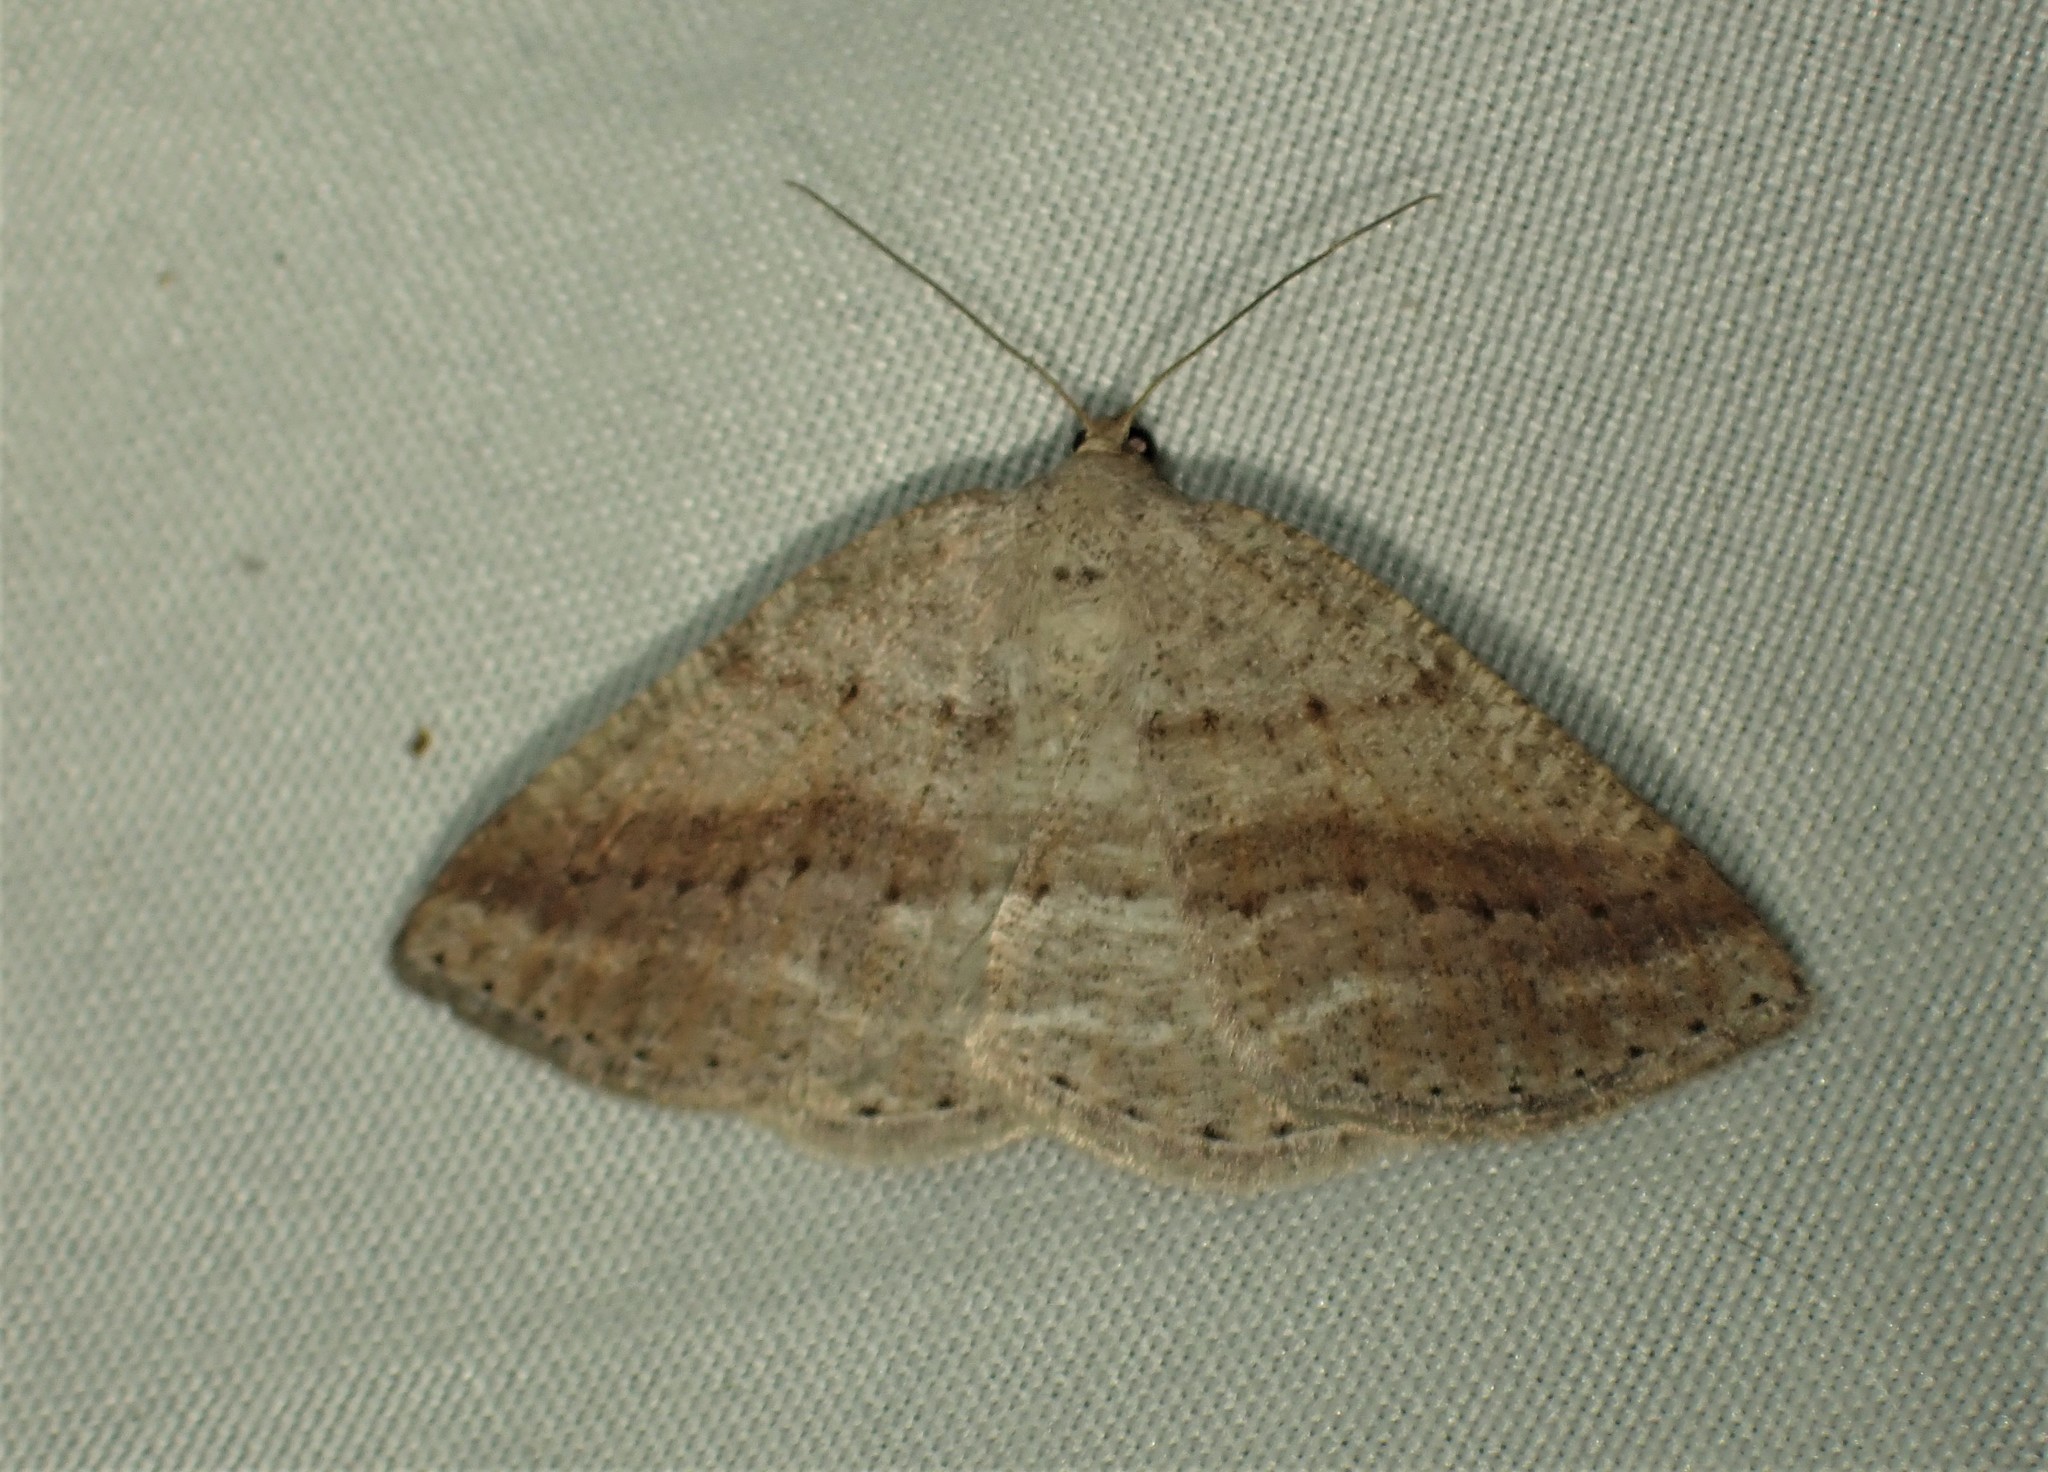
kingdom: Animalia
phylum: Arthropoda
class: Insecta
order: Lepidoptera
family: Geometridae
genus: Tacparia
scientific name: Tacparia detersata
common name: Pale alder moth
